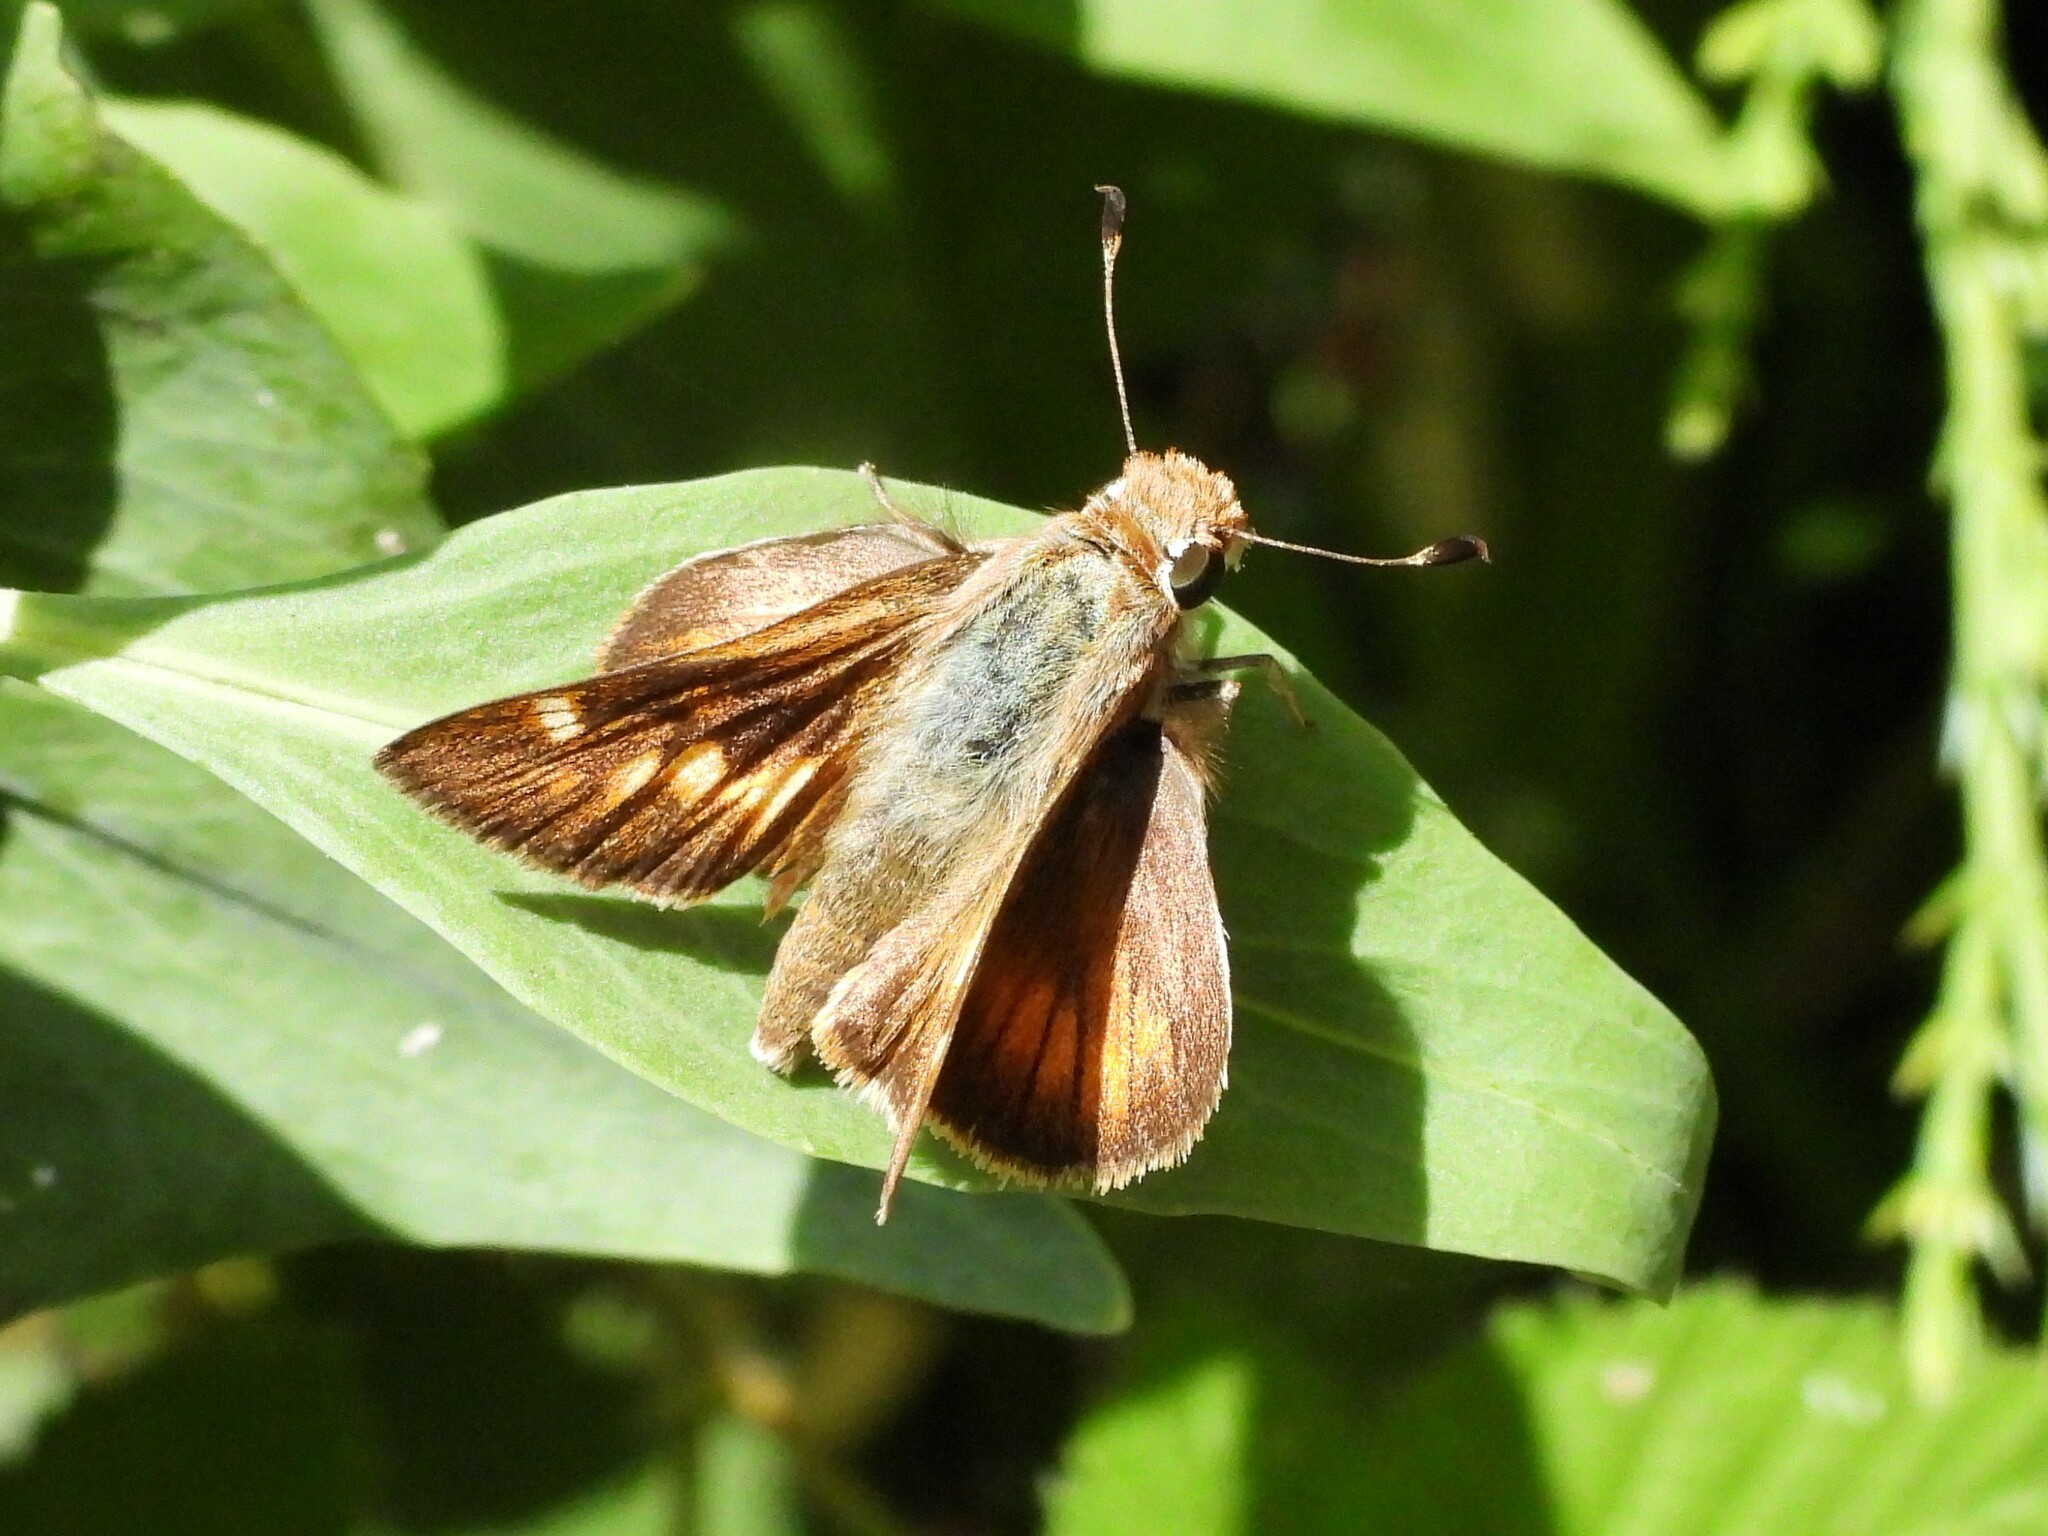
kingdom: Animalia
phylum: Arthropoda
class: Insecta
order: Lepidoptera
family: Hesperiidae
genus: Lon
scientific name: Lon melane
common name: Umber skipper
